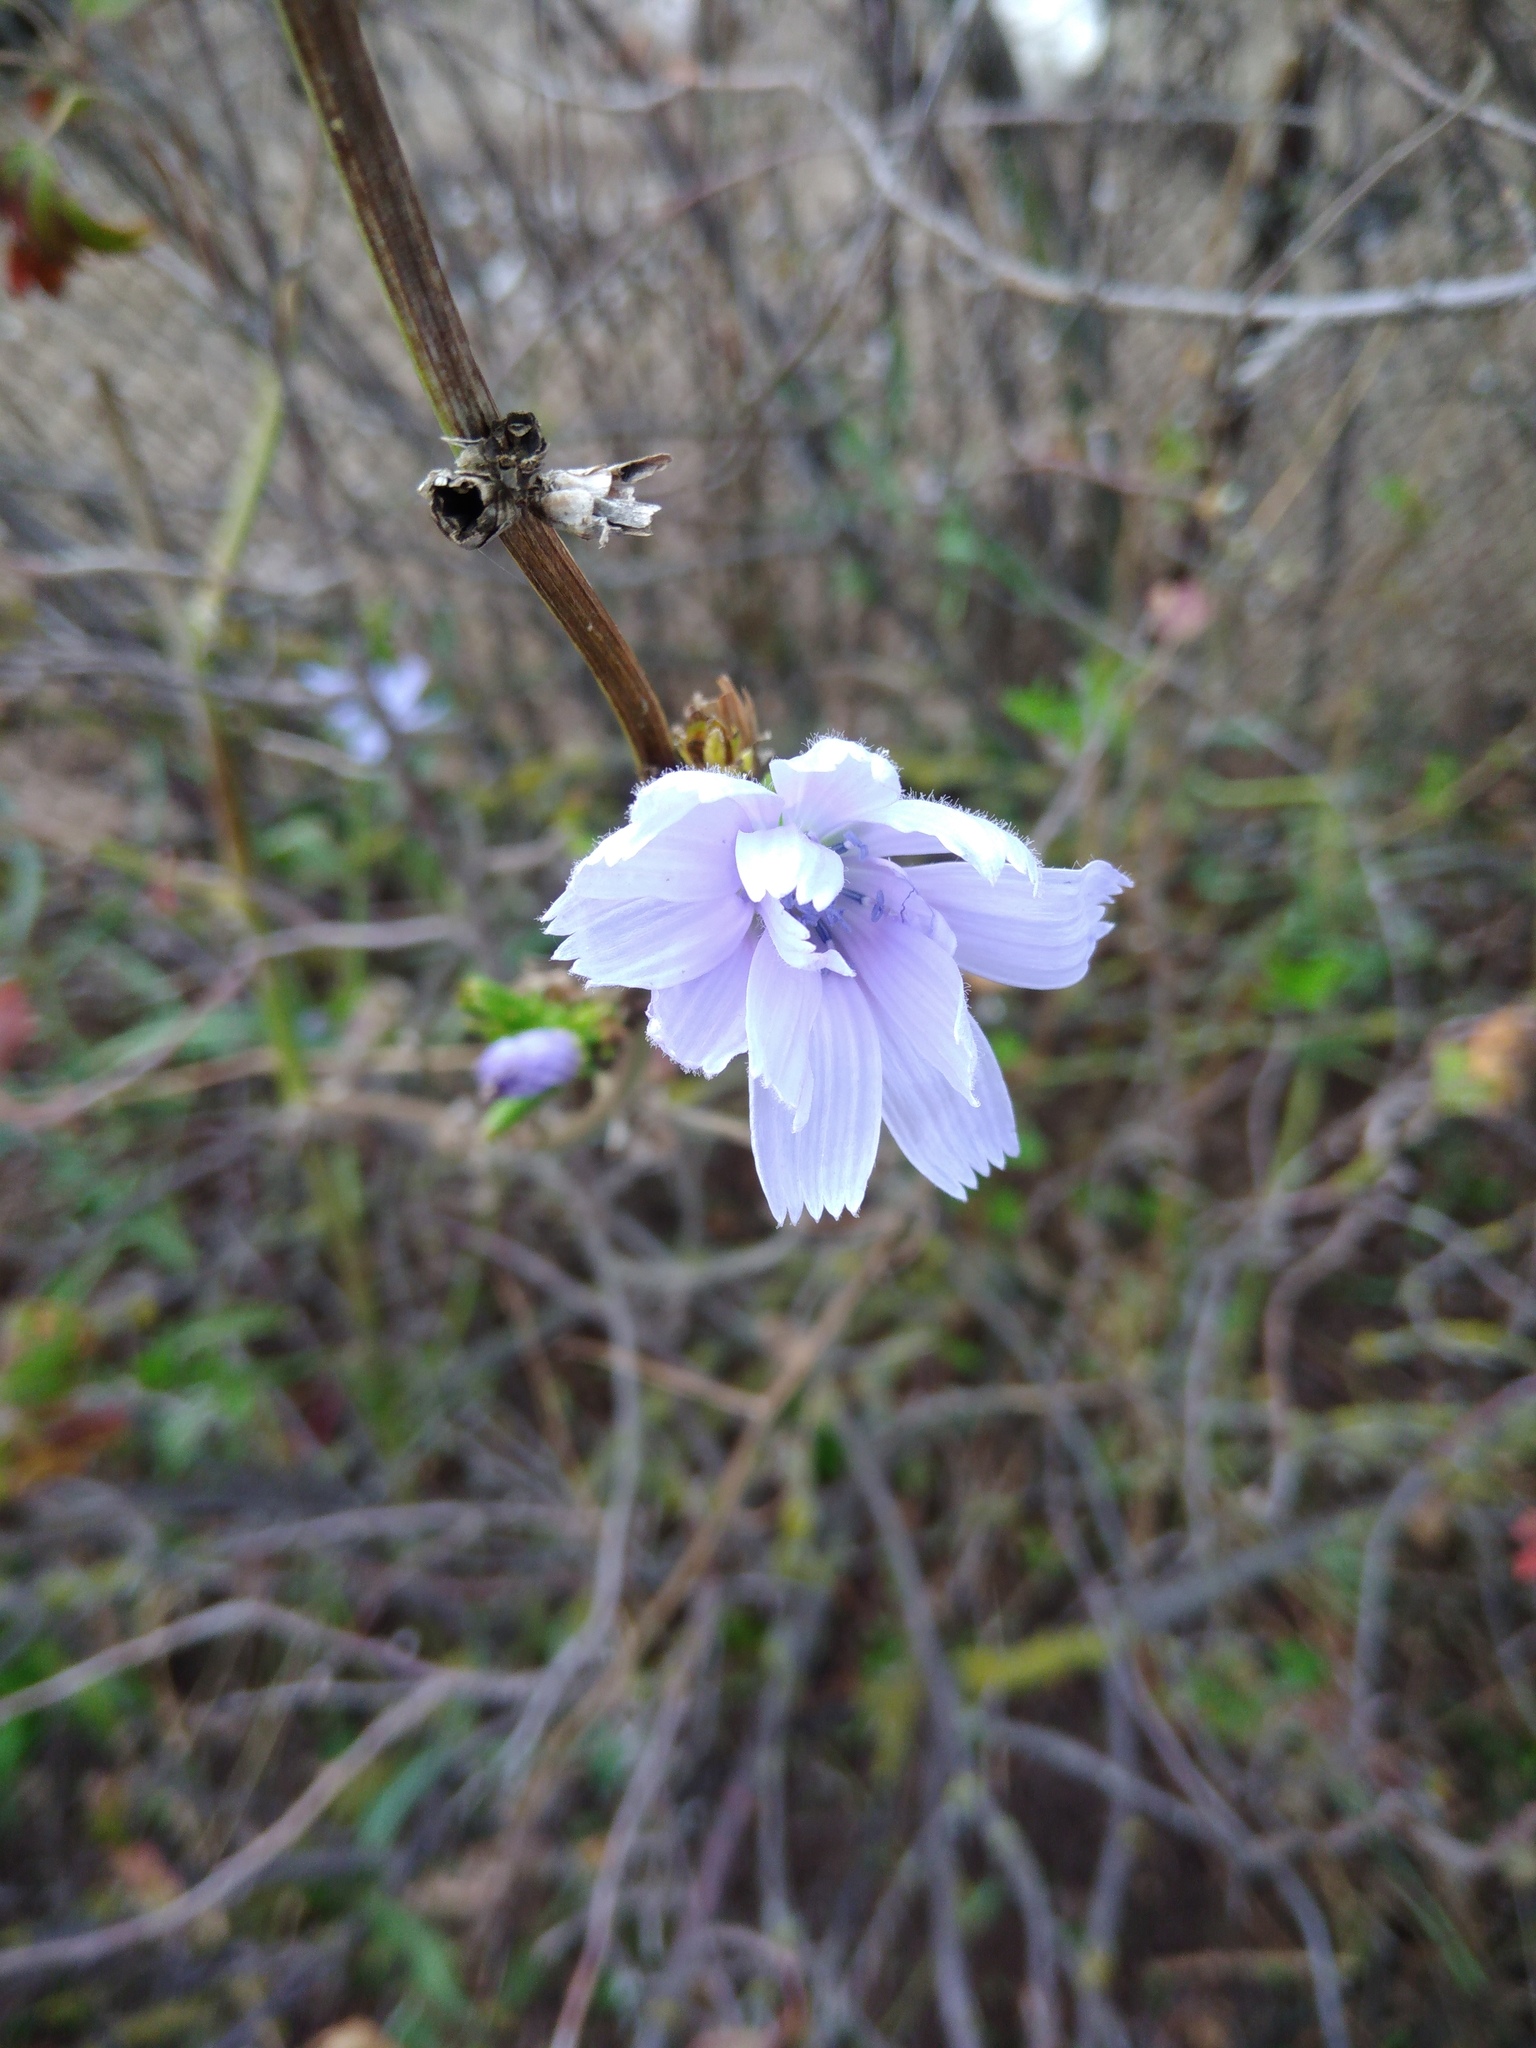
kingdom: Plantae
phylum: Tracheophyta
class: Magnoliopsida
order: Asterales
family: Asteraceae
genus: Cichorium
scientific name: Cichorium intybus
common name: Chicory
